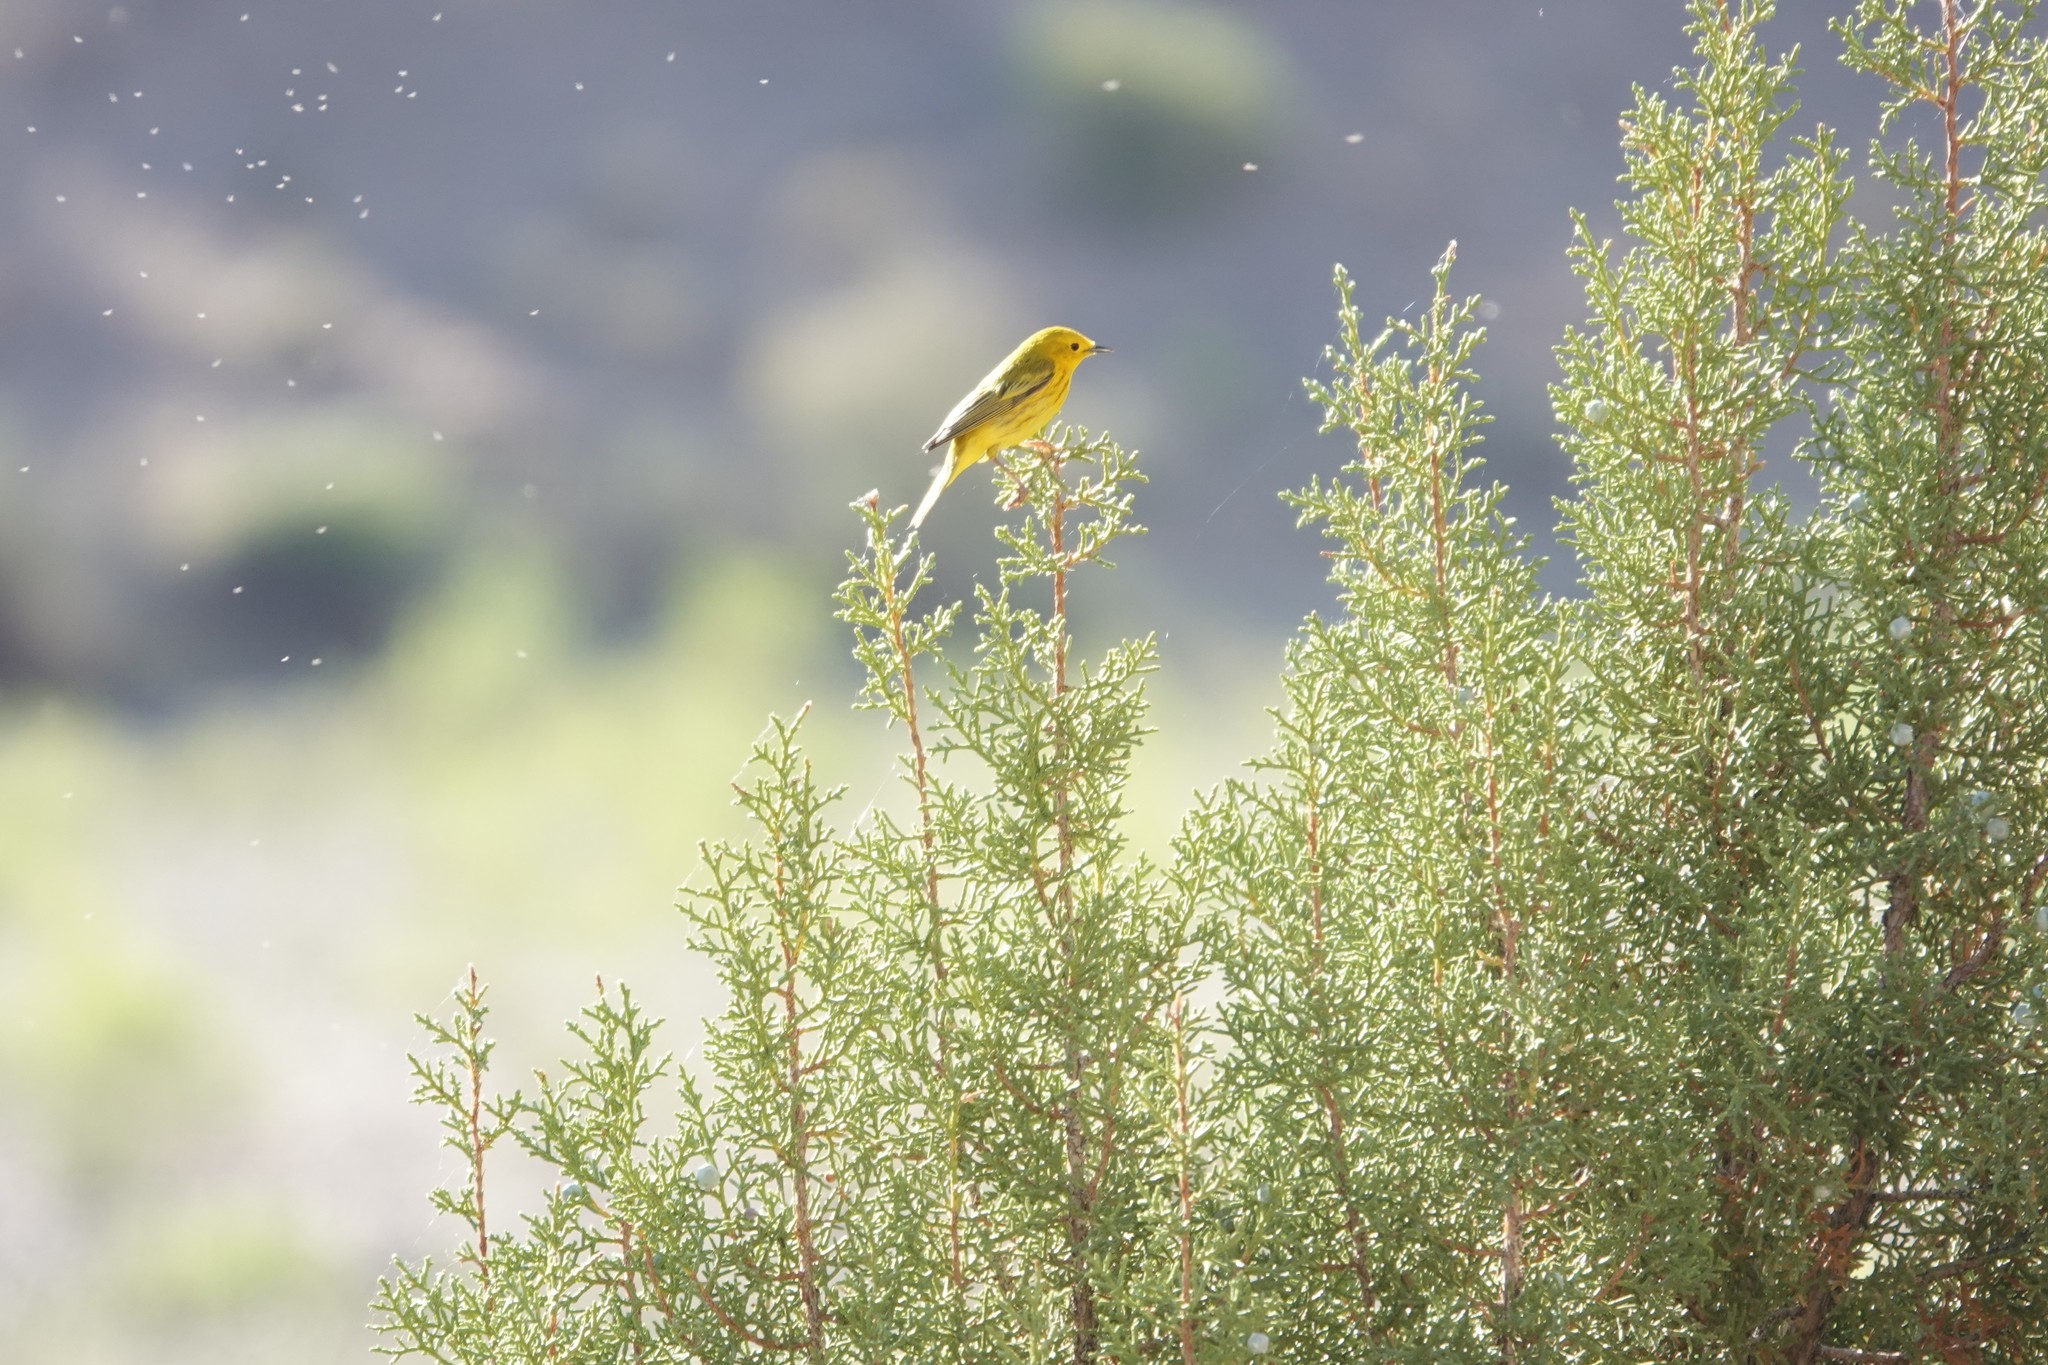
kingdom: Animalia
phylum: Chordata
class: Aves
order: Passeriformes
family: Parulidae
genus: Setophaga
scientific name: Setophaga petechia
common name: Yellow warbler
